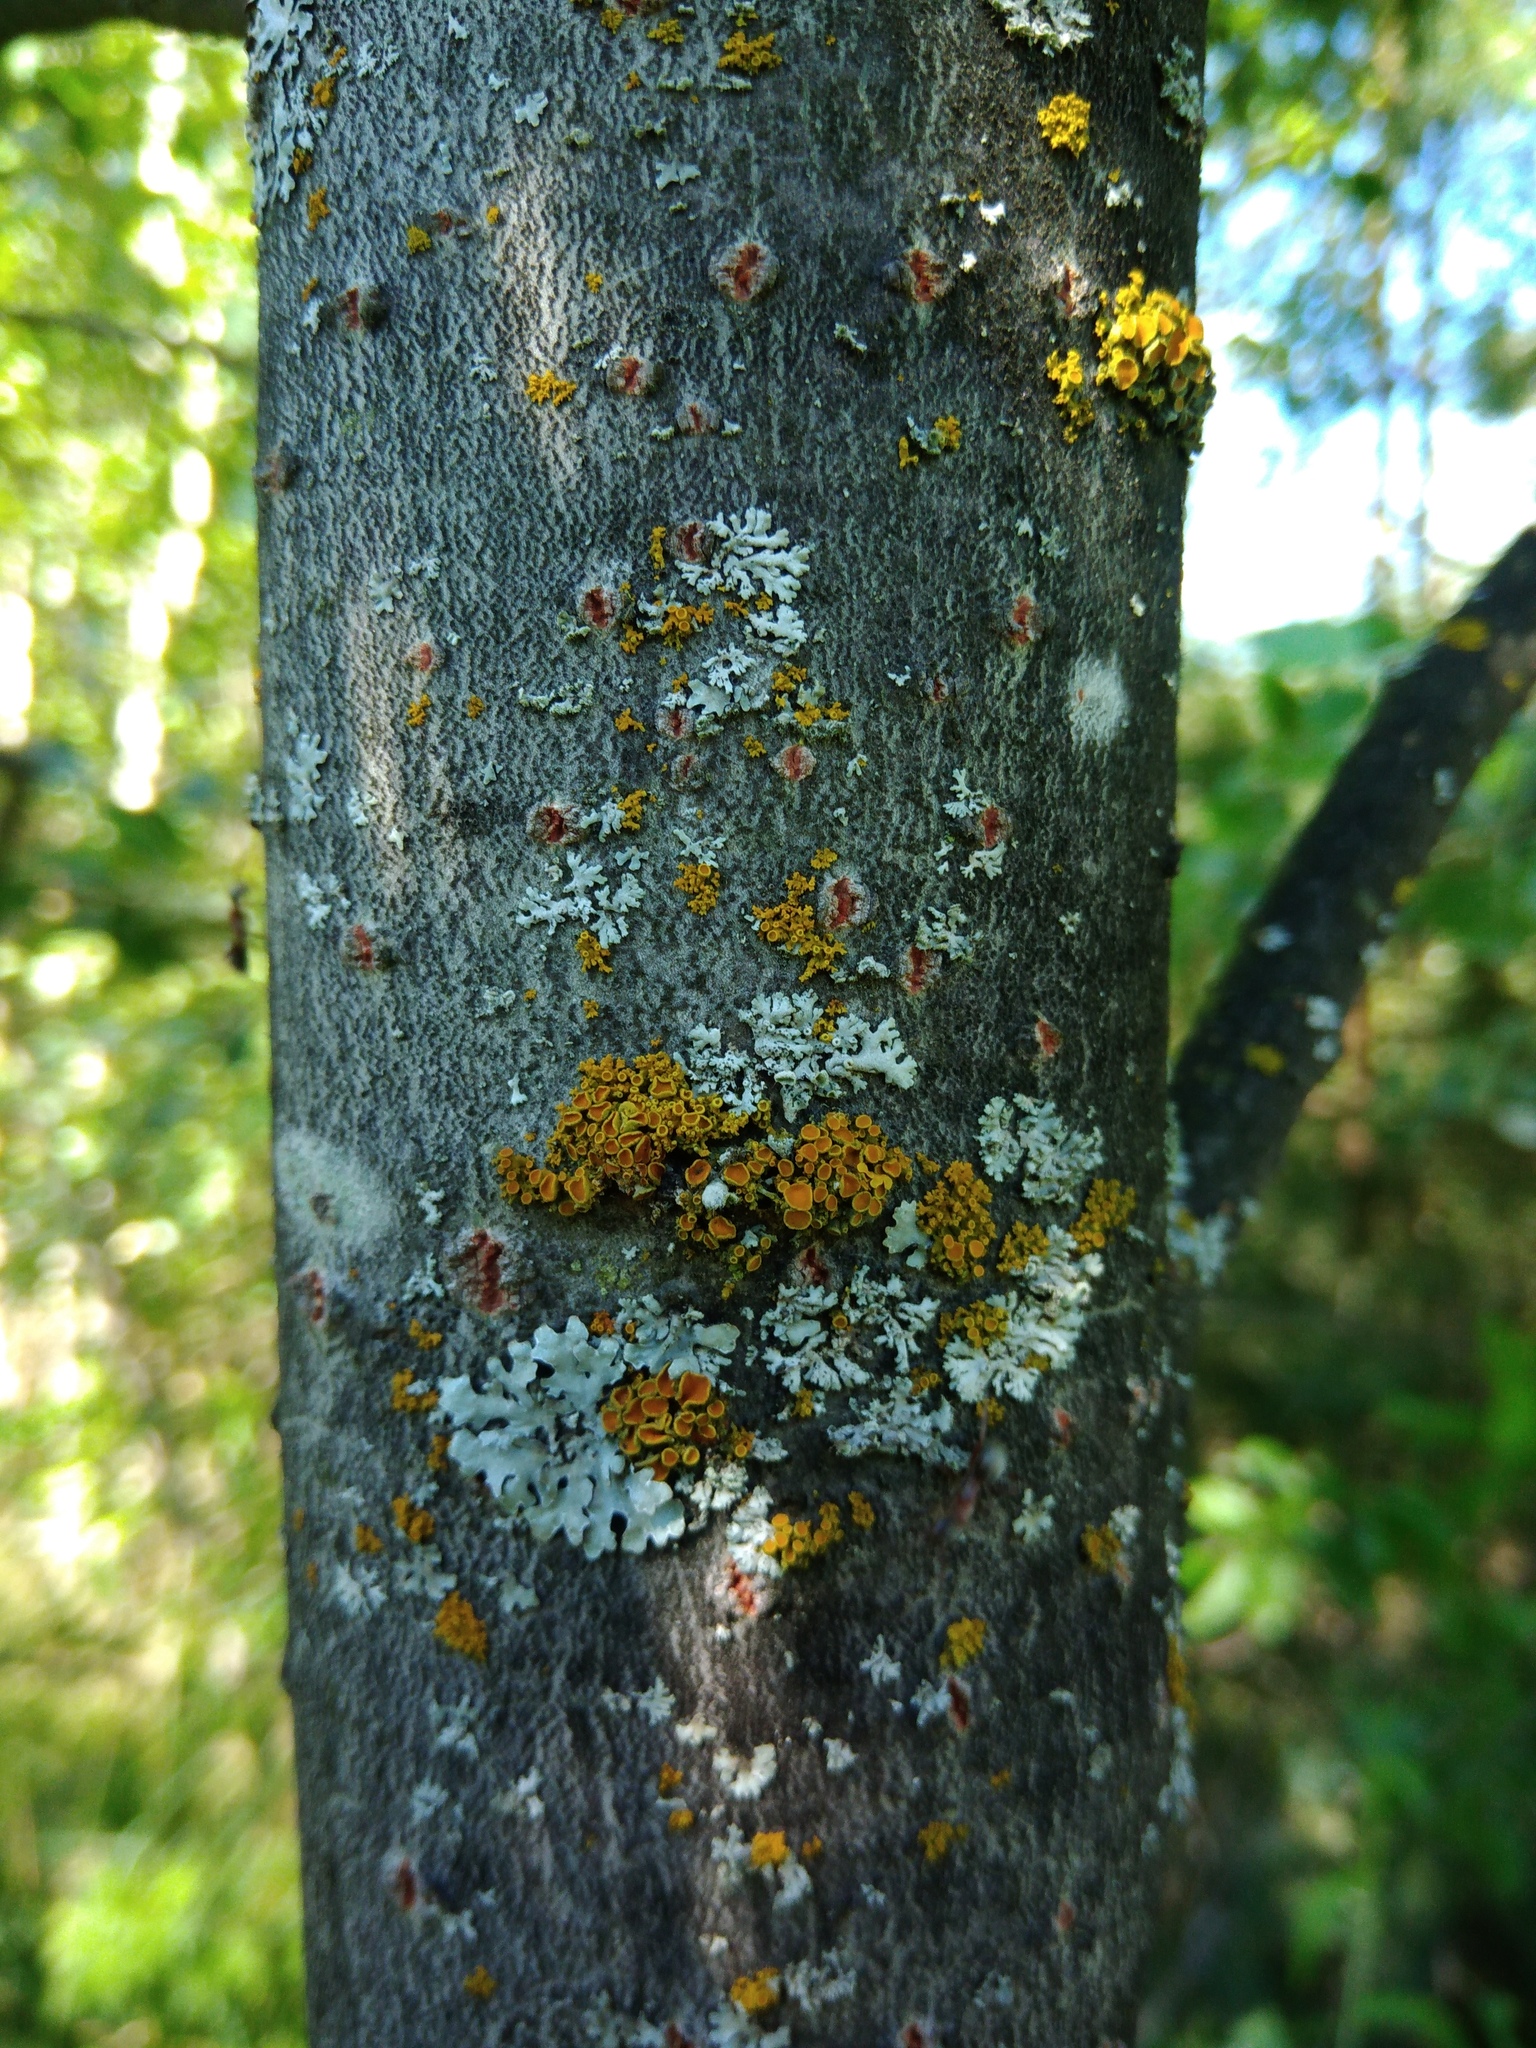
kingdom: Fungi
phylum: Ascomycota
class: Lecanoromycetes
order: Teloschistales
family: Teloschistaceae
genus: Polycauliona
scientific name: Polycauliona polycarpa
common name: Pin-cushion sunburst lichen
